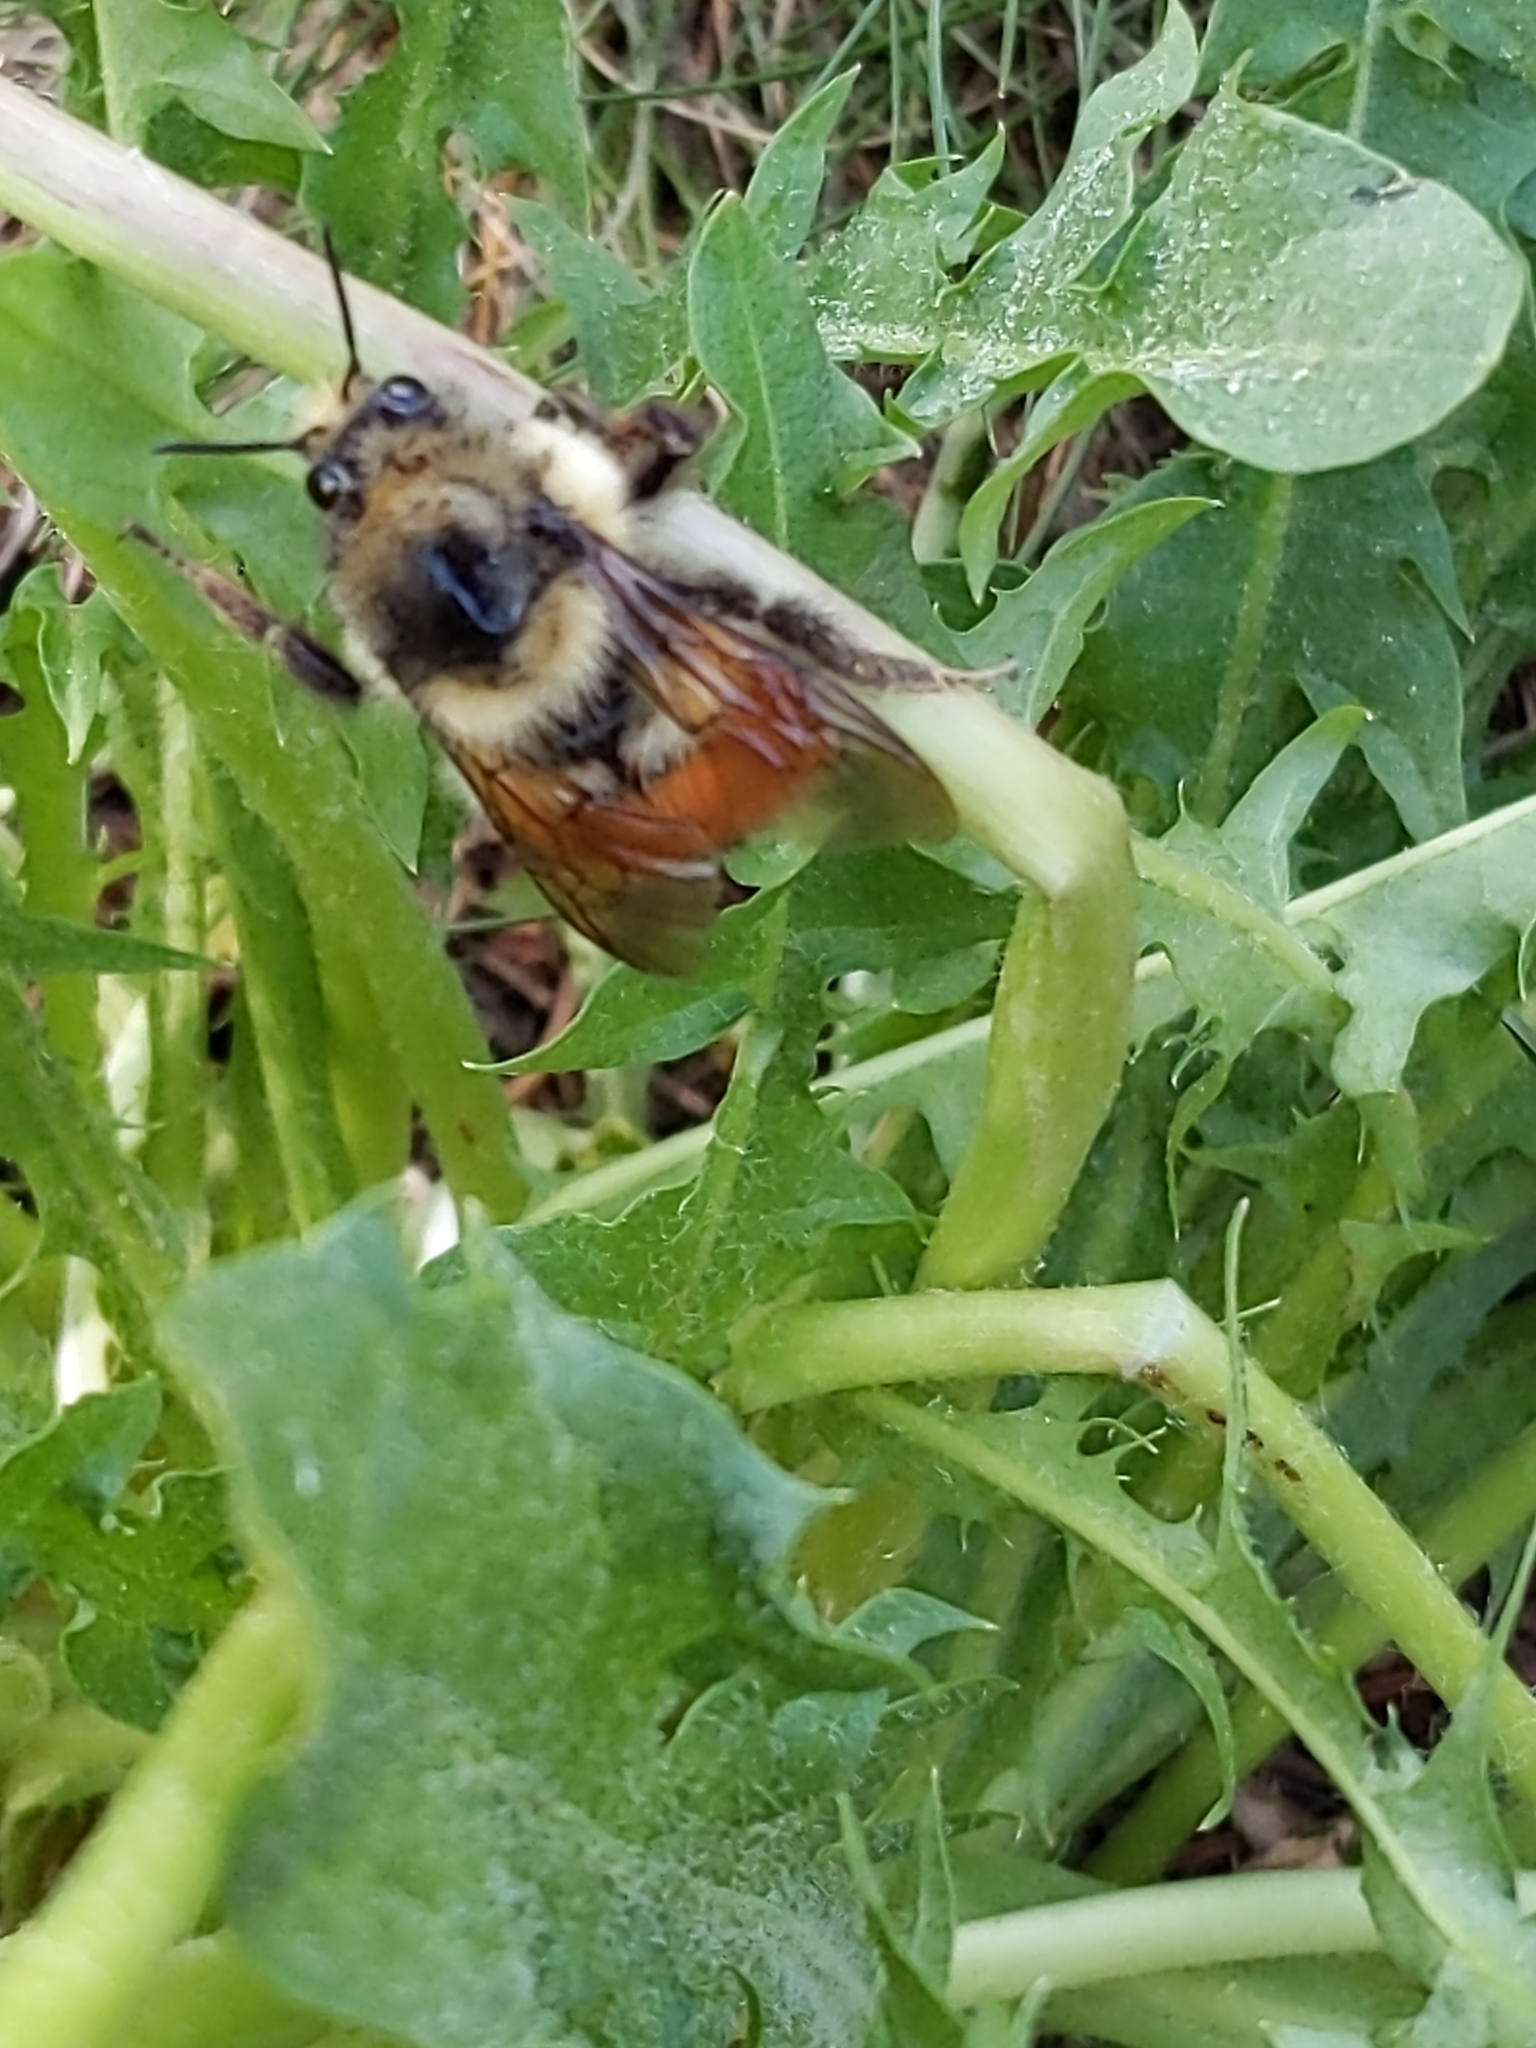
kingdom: Animalia
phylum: Arthropoda
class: Insecta
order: Hymenoptera
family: Apidae
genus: Bombus
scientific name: Bombus bifarius
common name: Two form bumble bee
